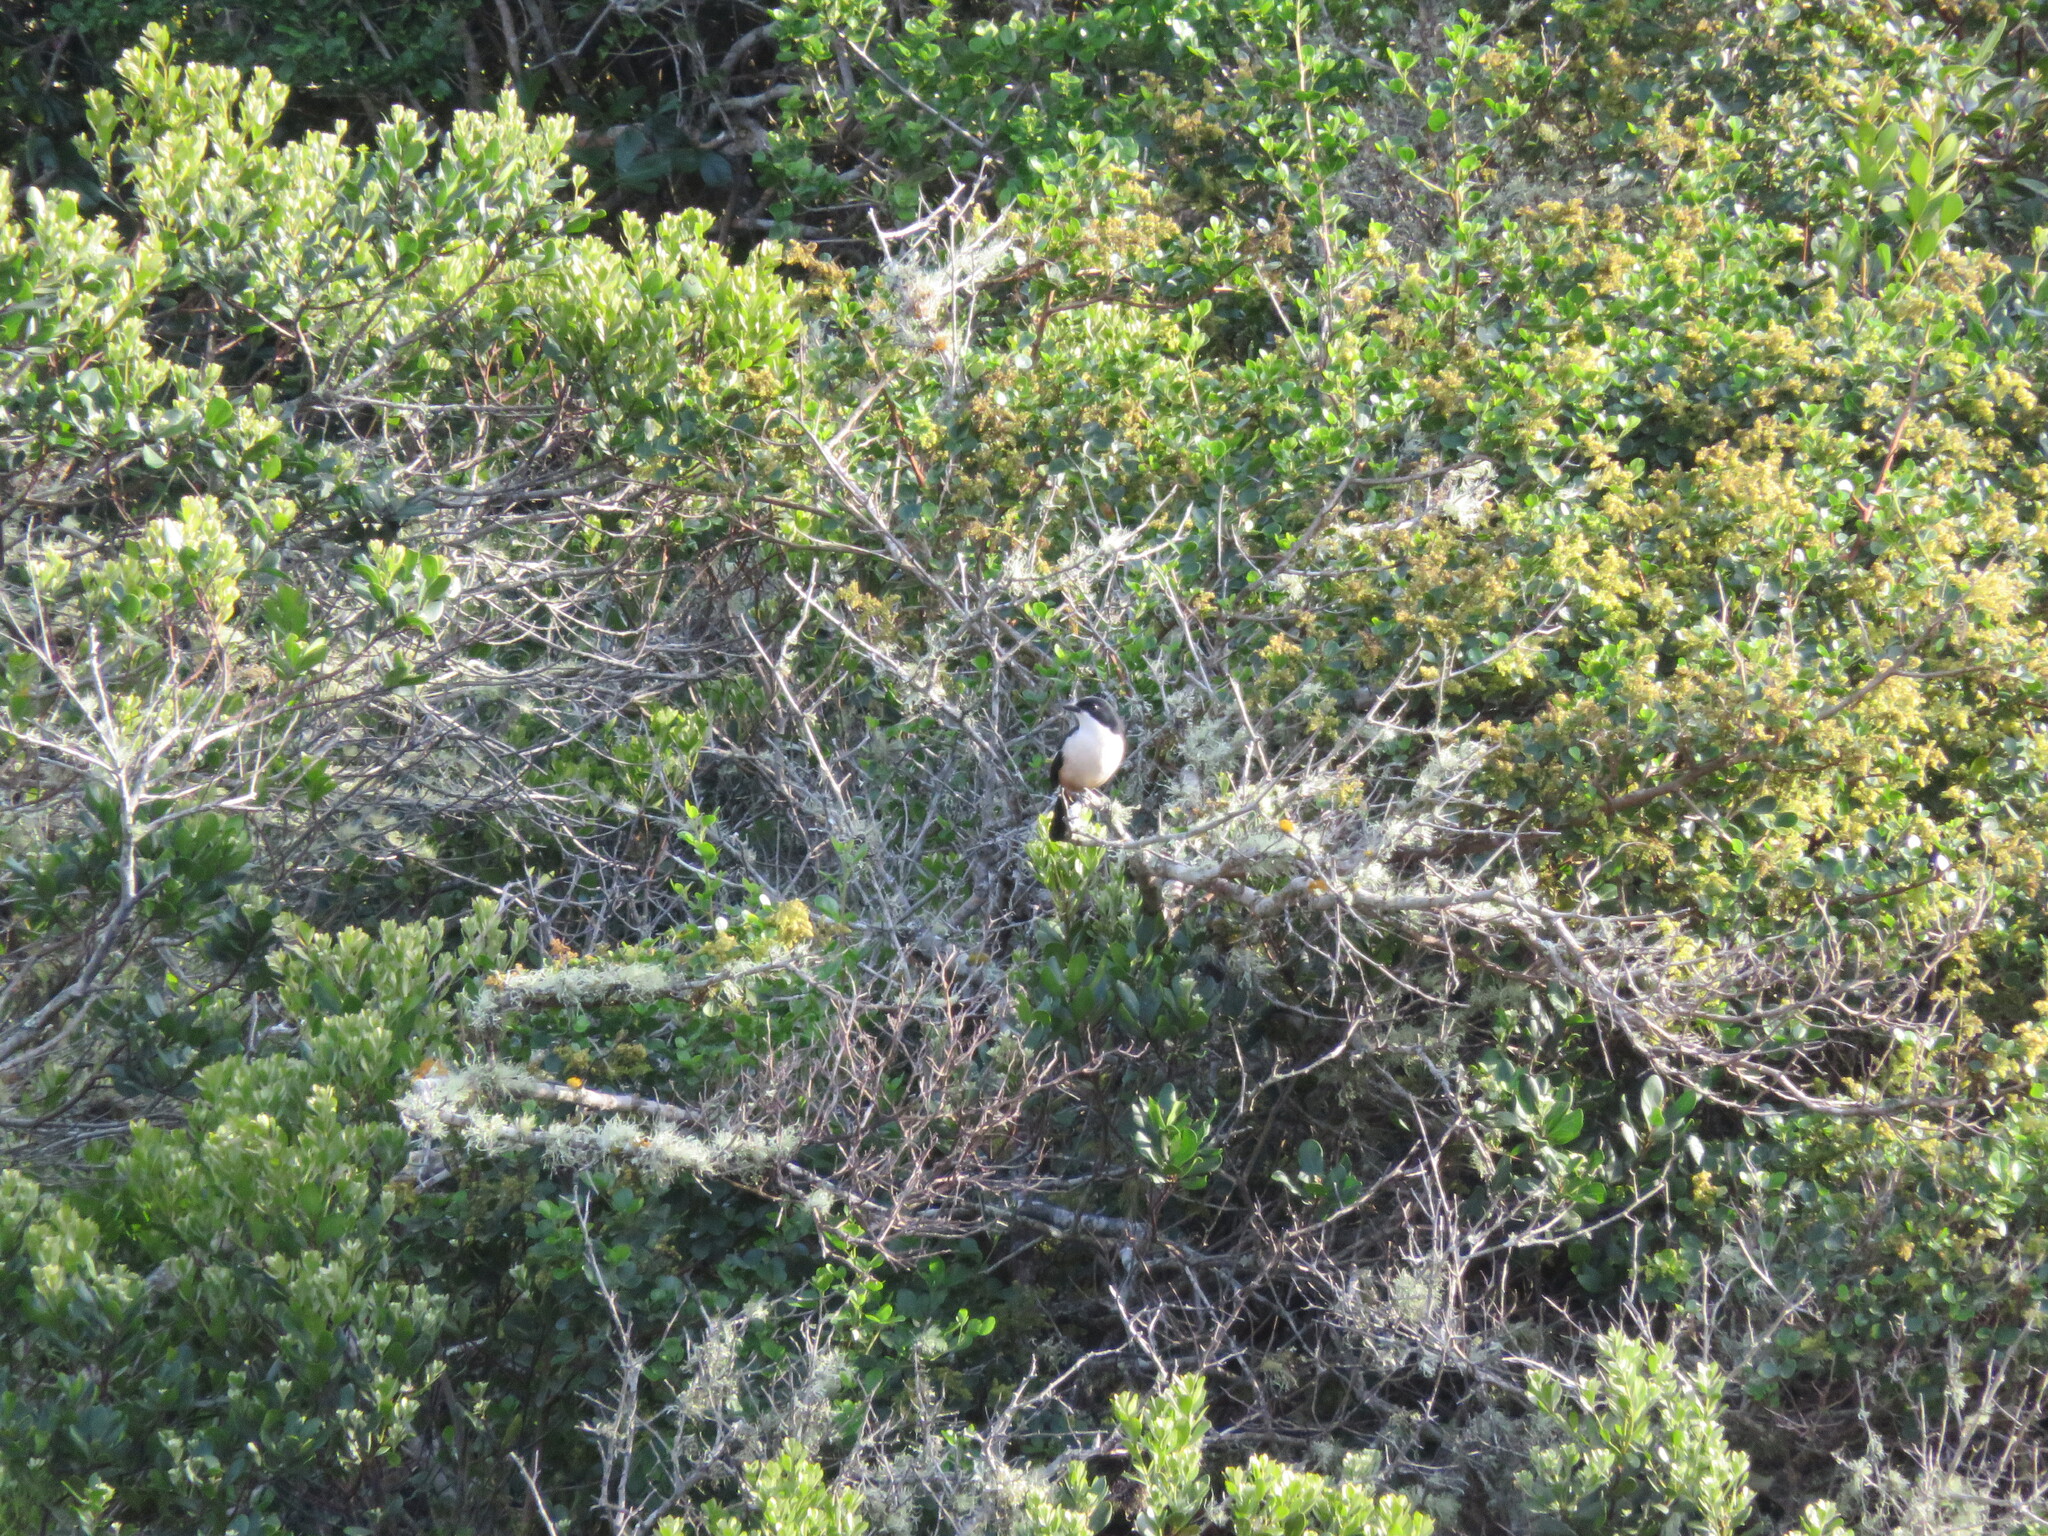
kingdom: Animalia
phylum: Chordata
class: Aves
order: Passeriformes
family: Malaconotidae
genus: Laniarius
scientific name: Laniarius ferrugineus
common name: Southern boubou
